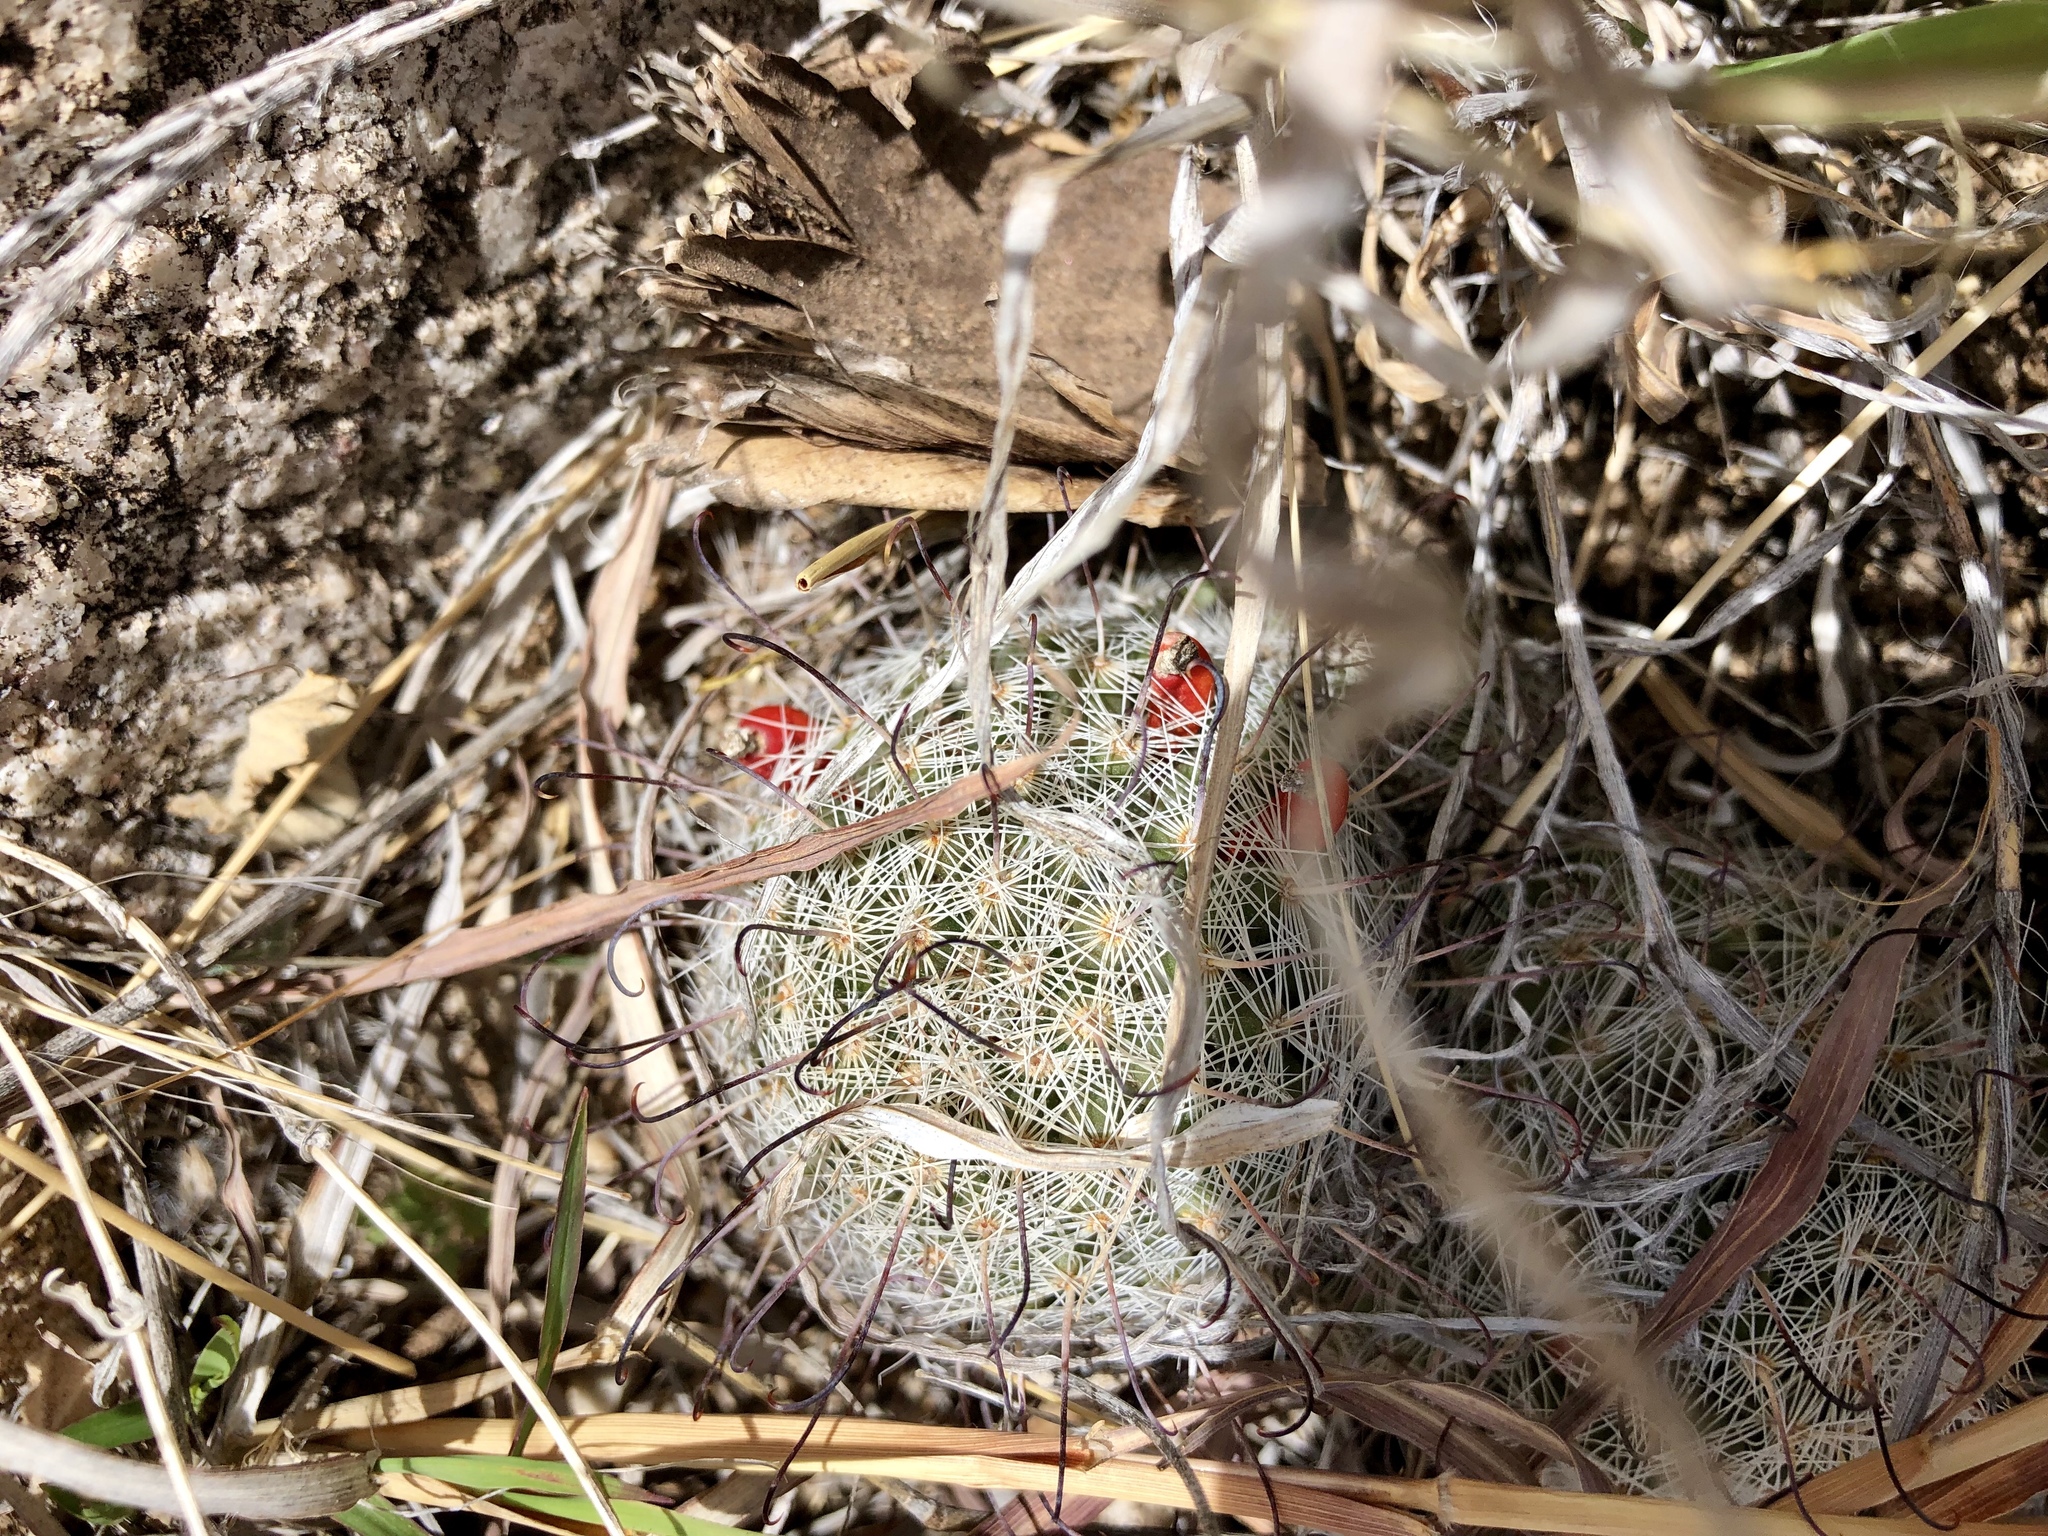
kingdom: Plantae
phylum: Tracheophyta
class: Magnoliopsida
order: Caryophyllales
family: Cactaceae
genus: Cochemiea
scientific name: Cochemiea grahamii
